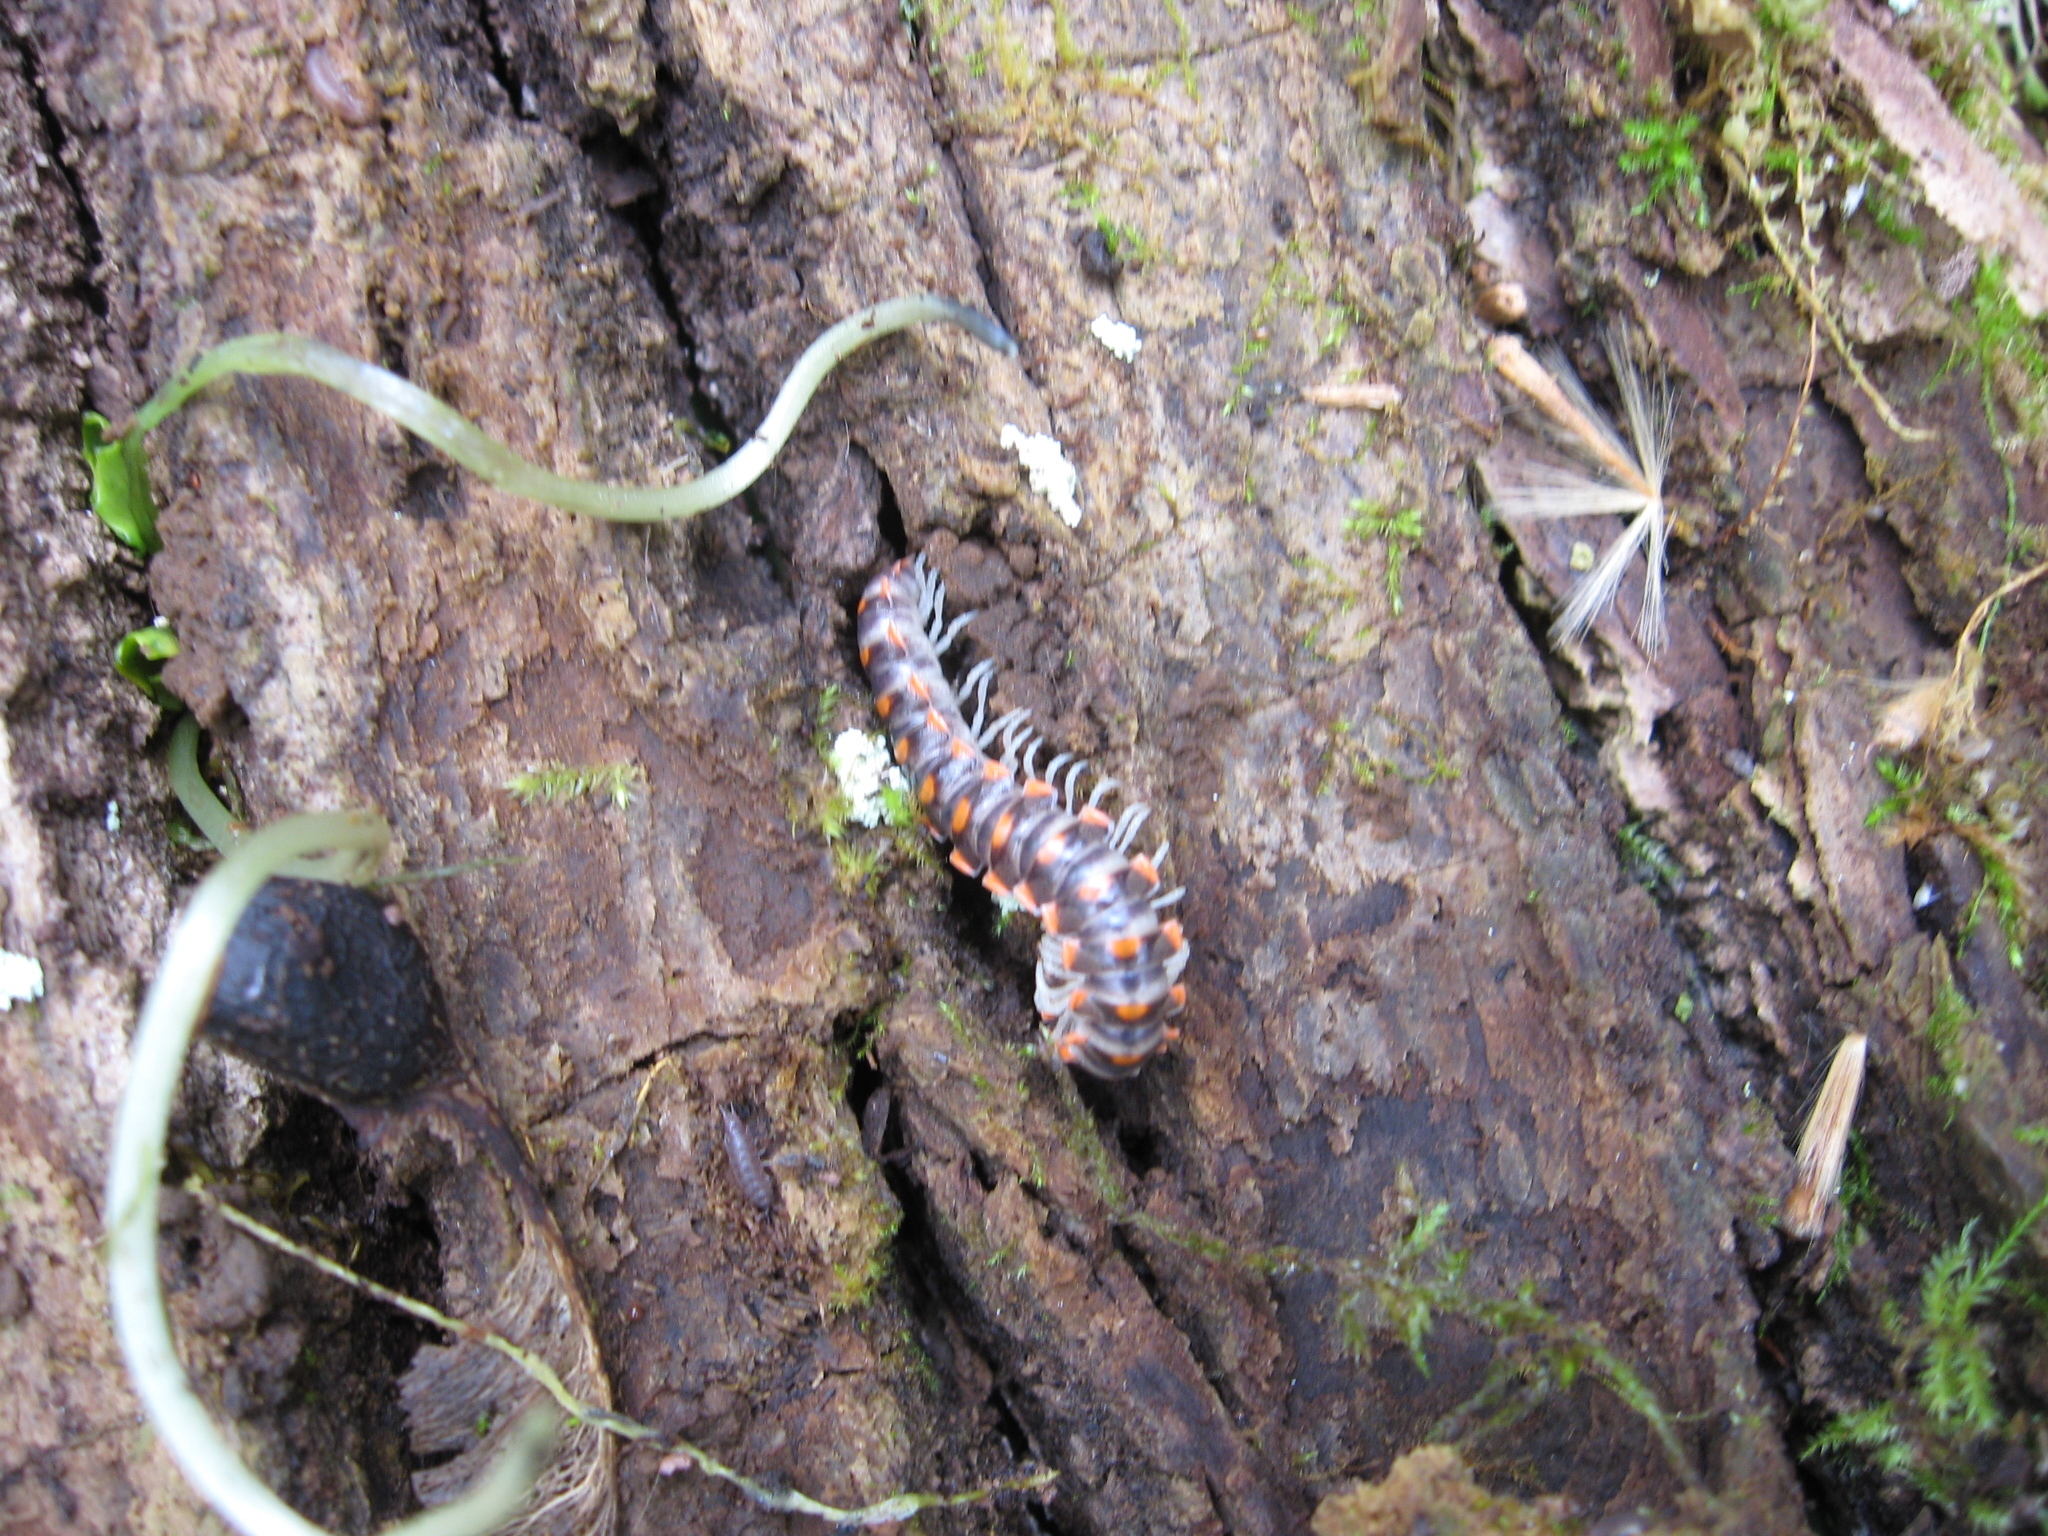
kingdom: Animalia
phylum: Arthropoda
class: Diplopoda
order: Polydesmida
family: Xystodesmidae
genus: Euryurus
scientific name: Euryurus leachii
